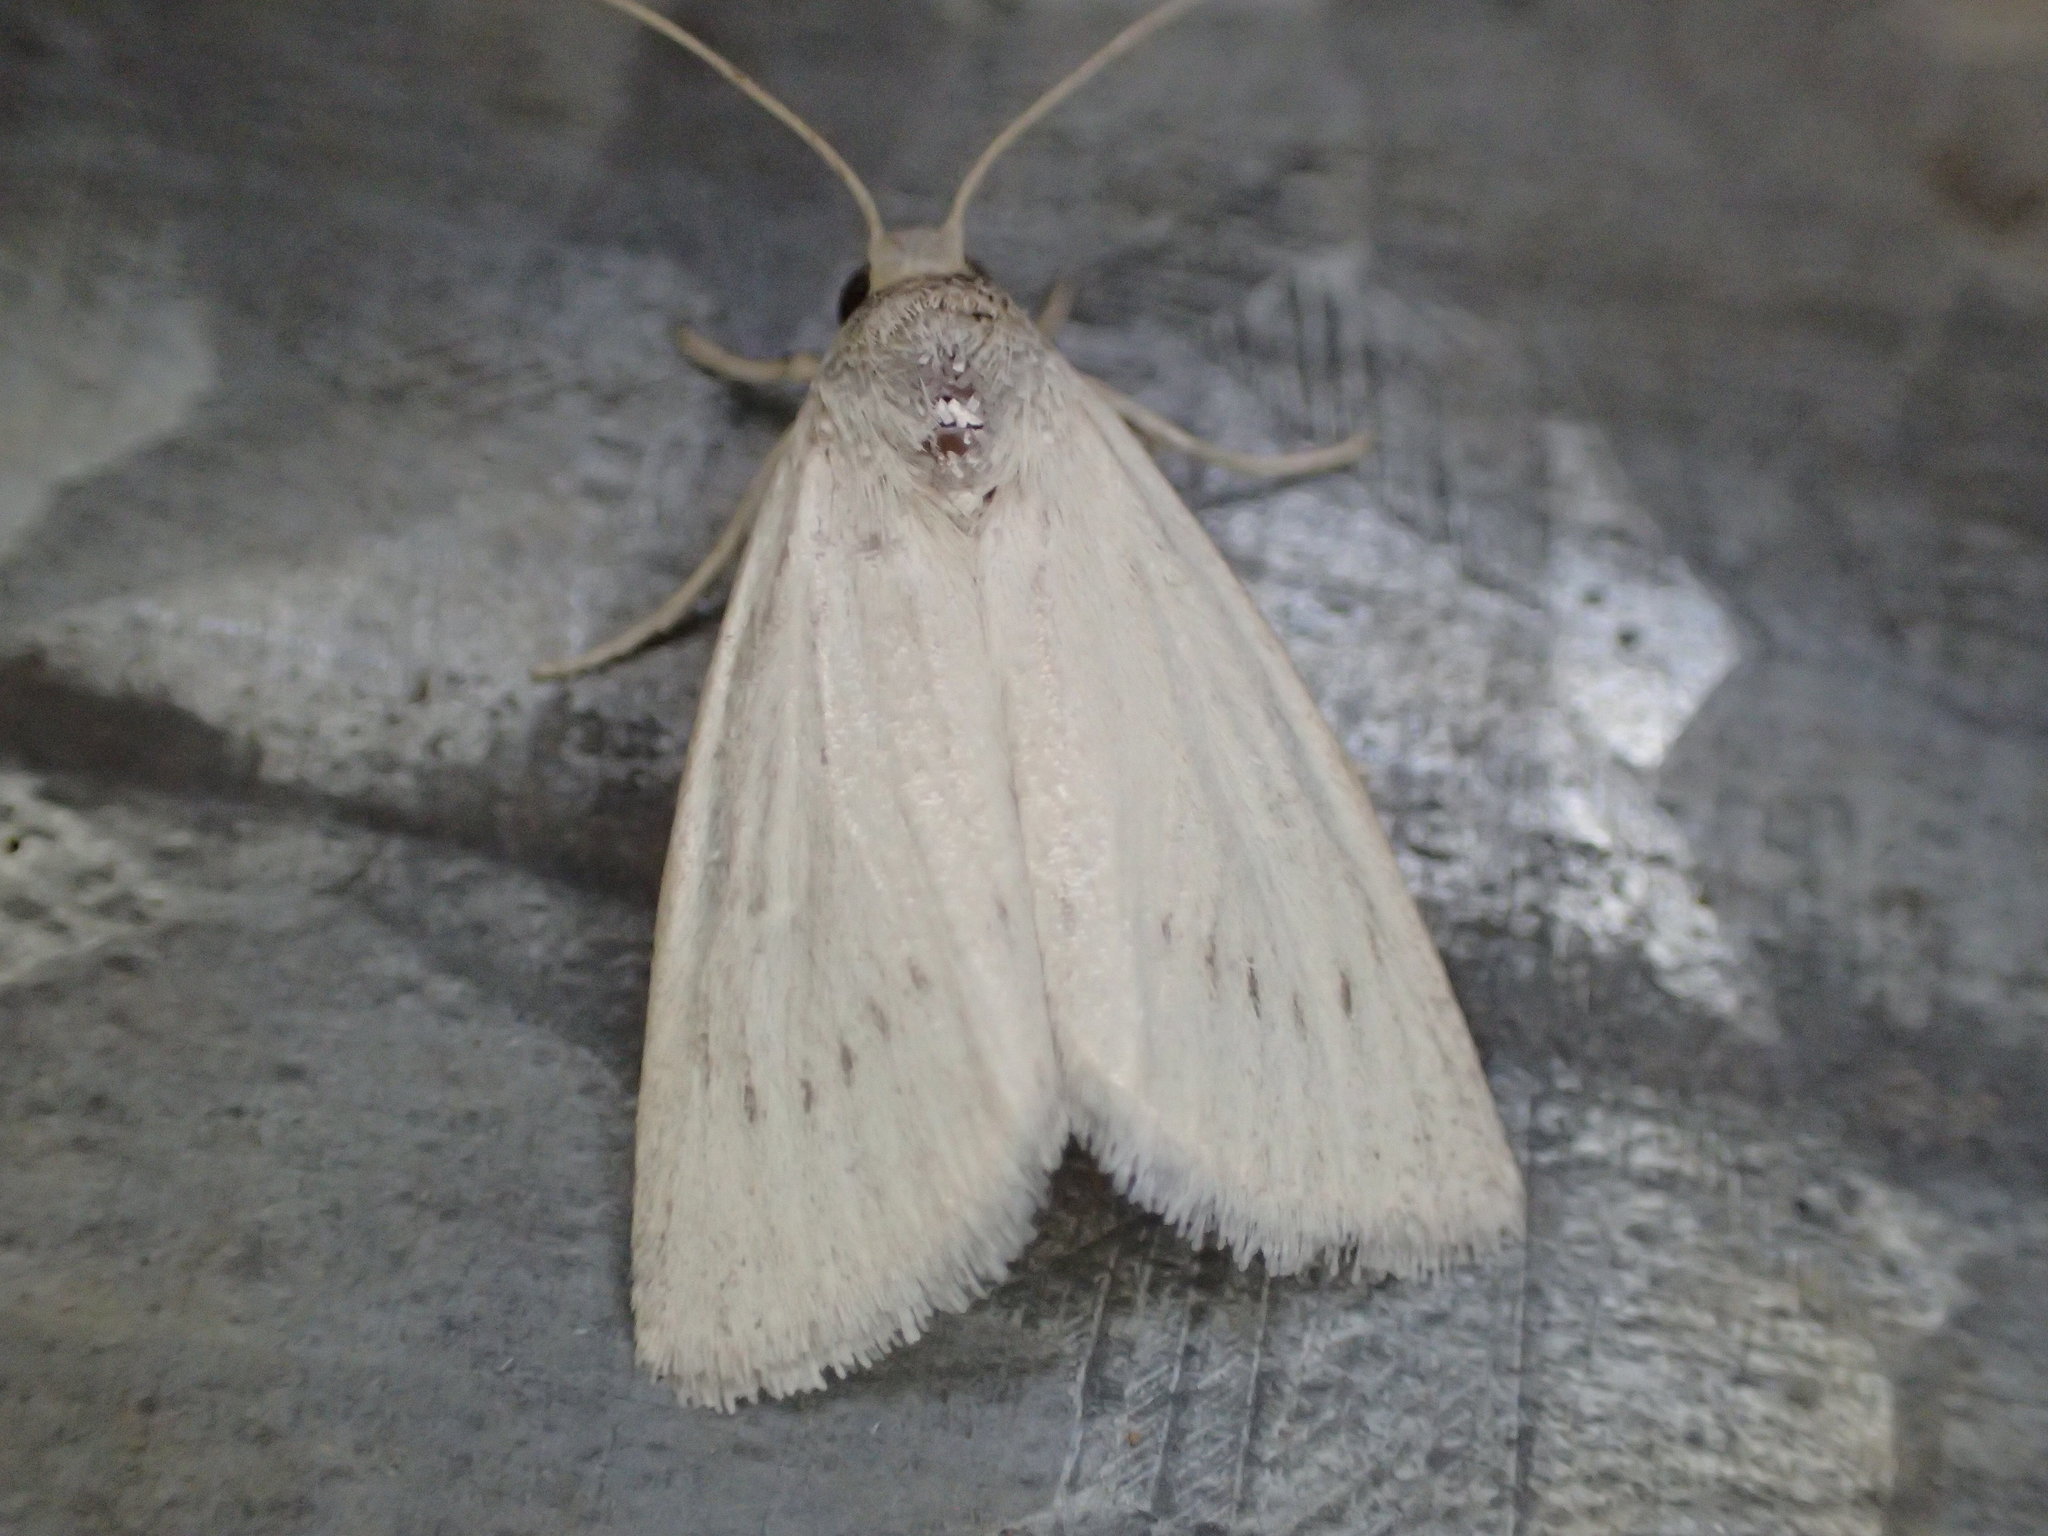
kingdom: Animalia
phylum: Arthropoda
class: Insecta
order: Lepidoptera
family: Noctuidae
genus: Heliocheilus
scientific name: Heliocheilus aleurota
